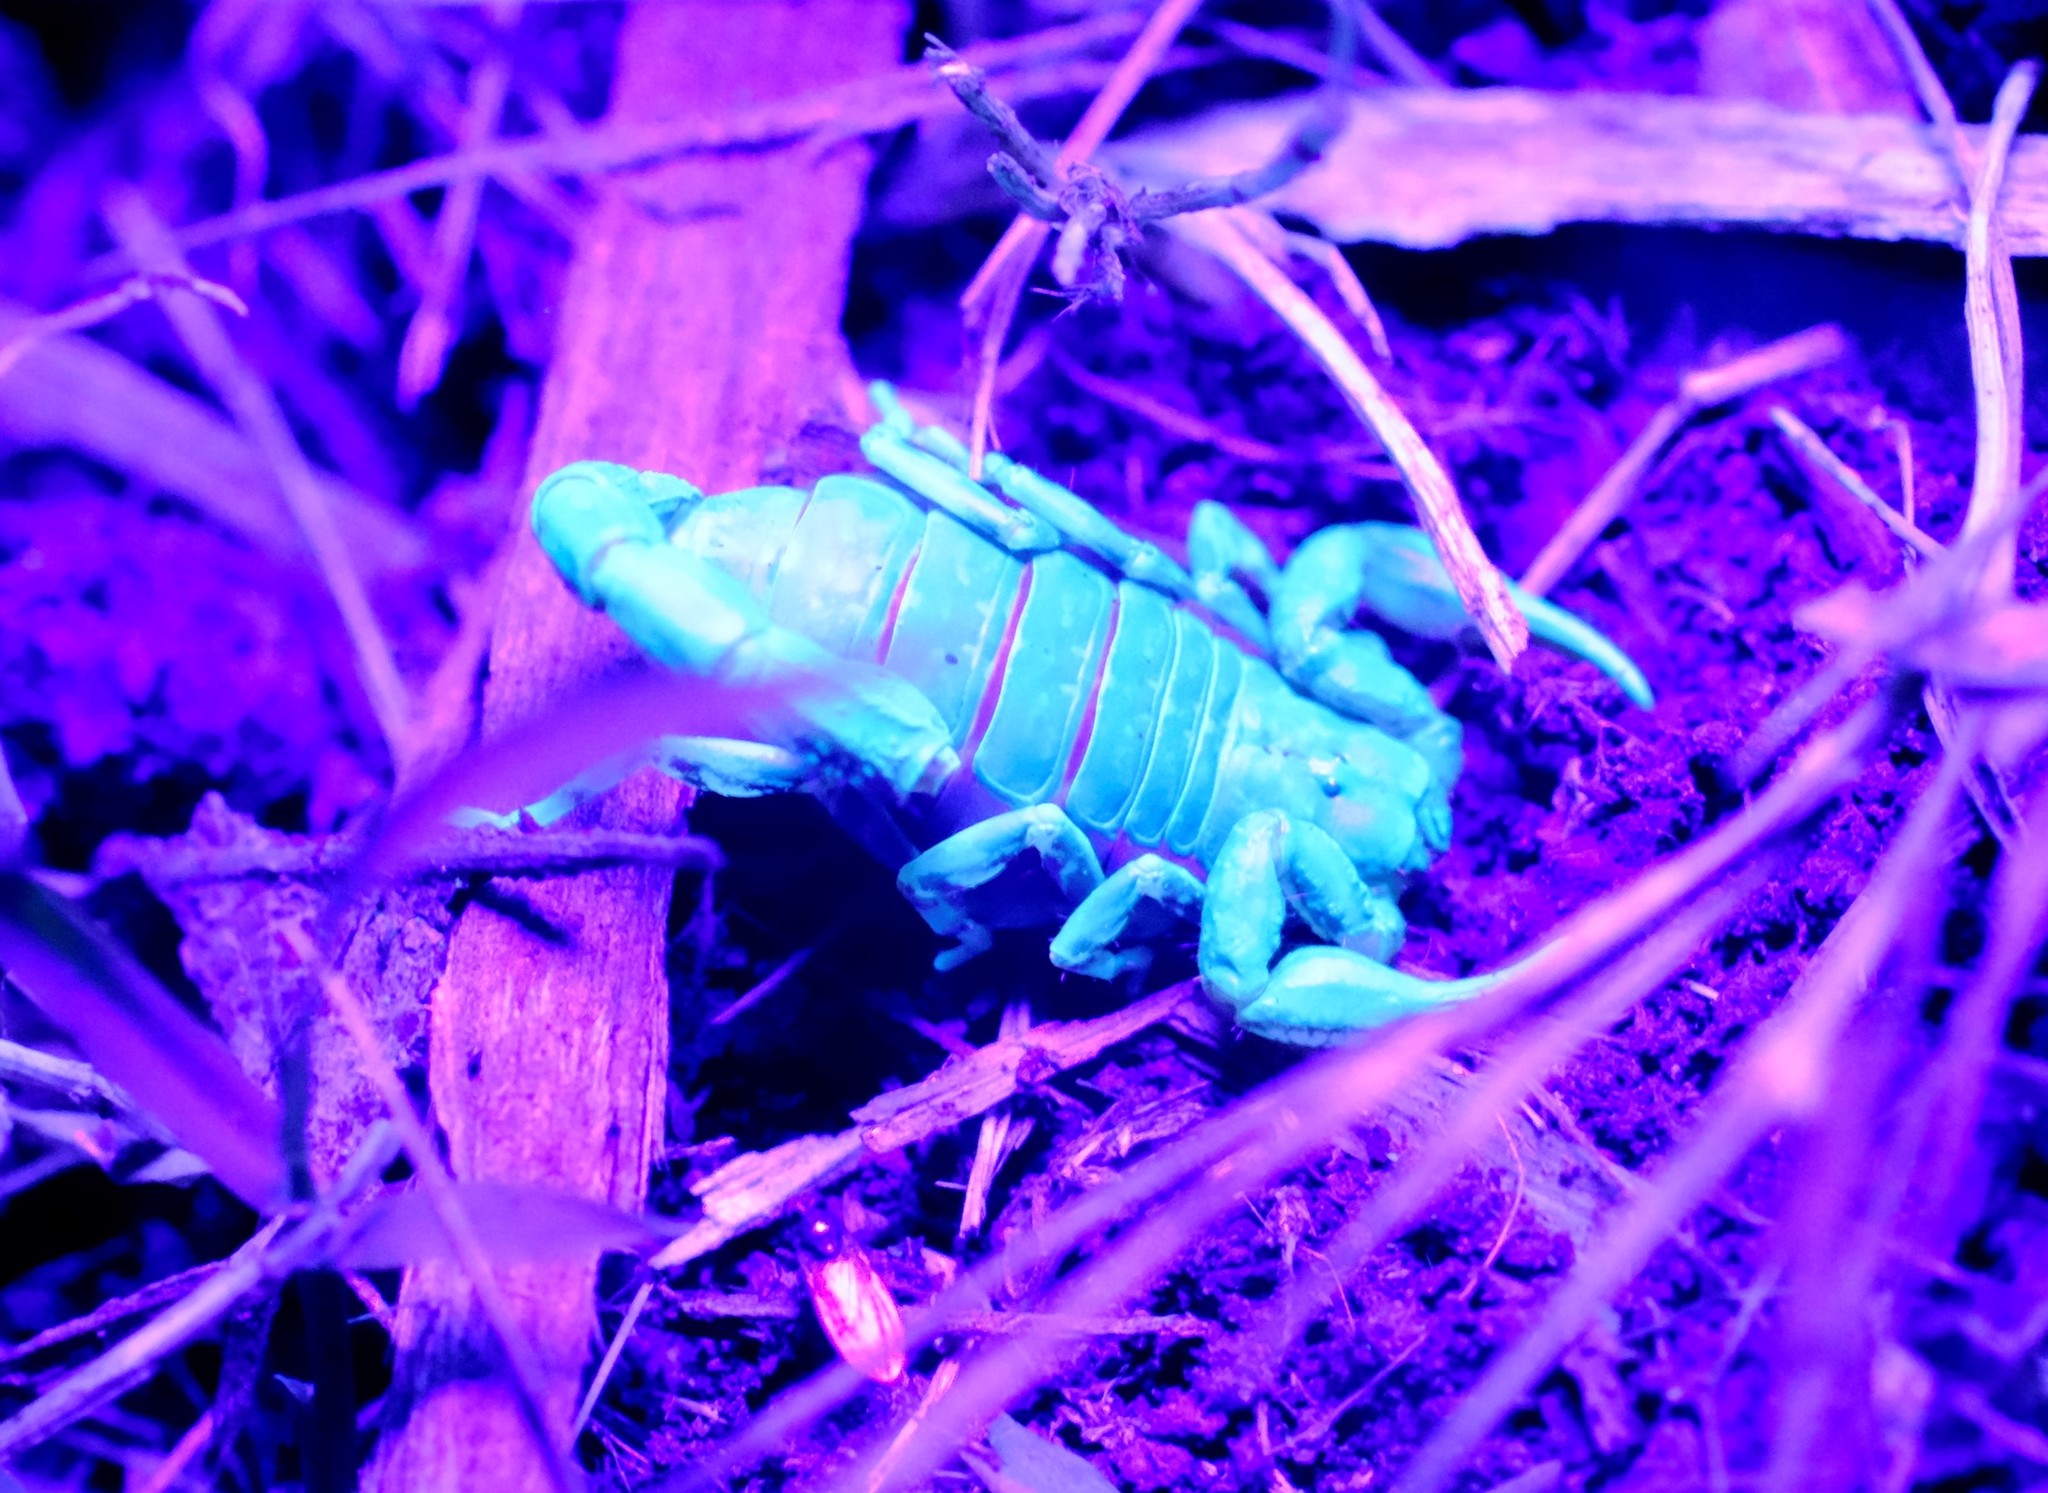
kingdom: Animalia
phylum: Arthropoda
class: Arachnida
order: Scorpiones
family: Bothriuridae
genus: Cercophonius
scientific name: Cercophonius squama
